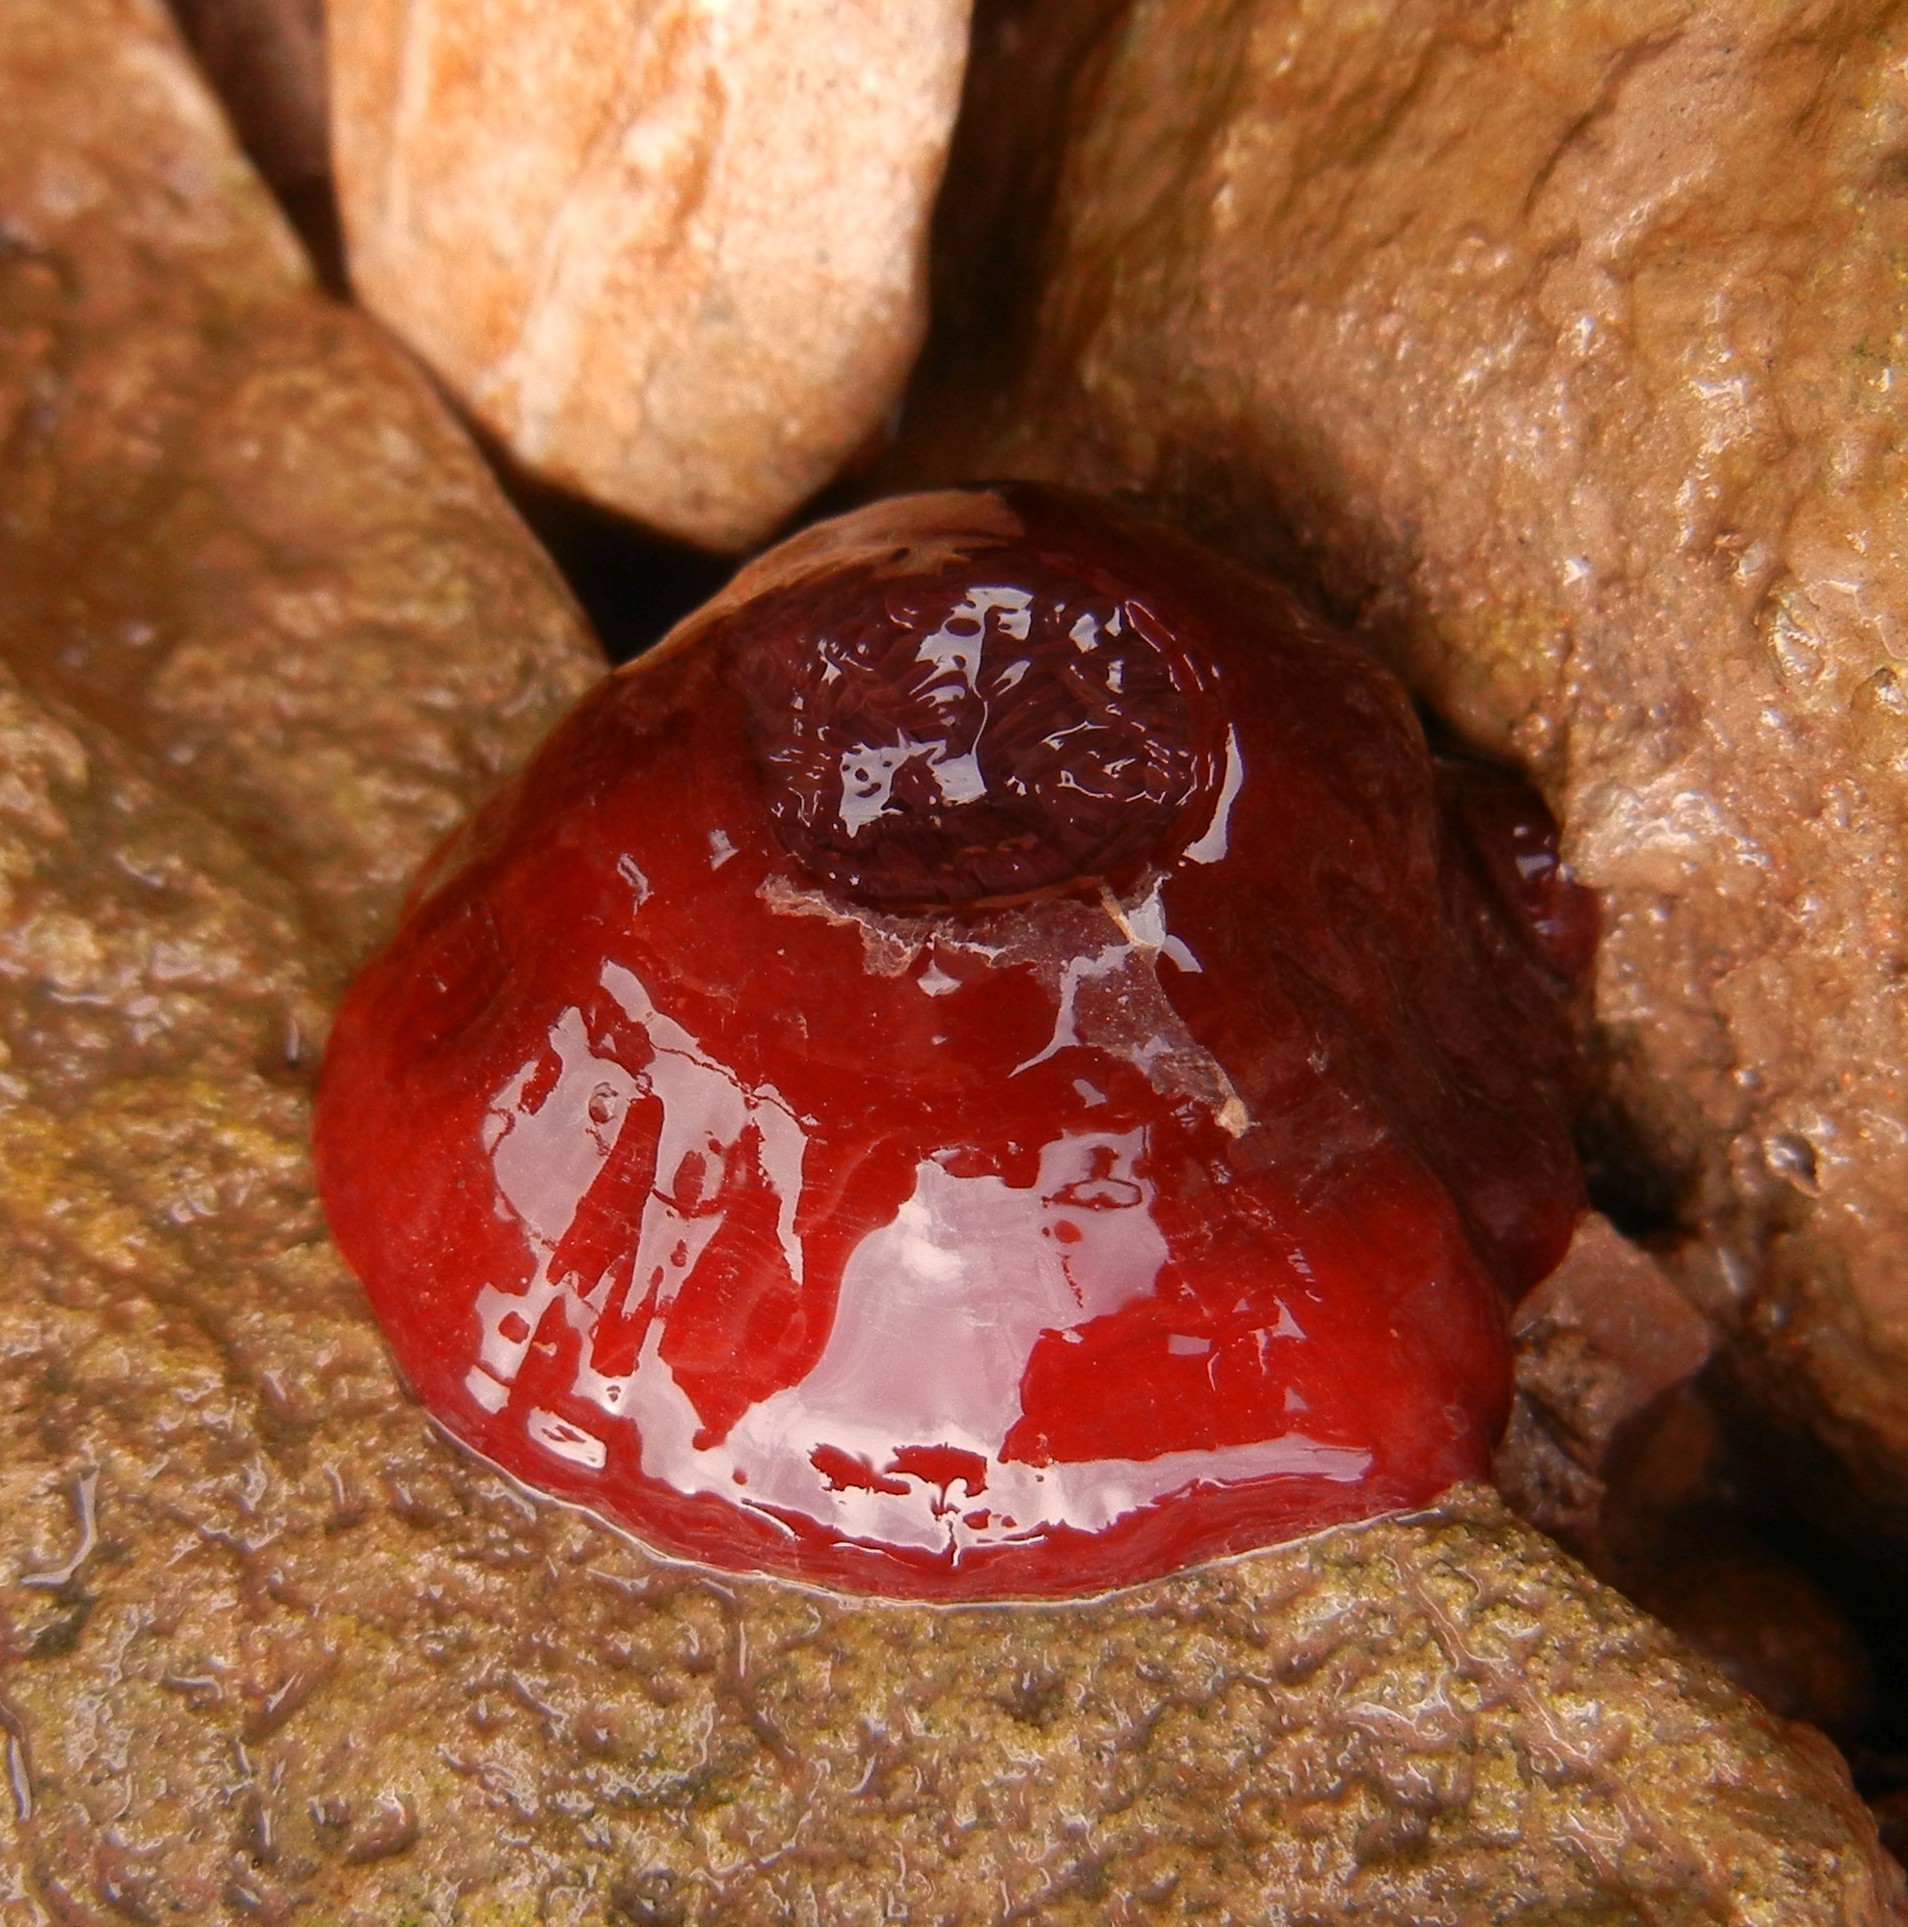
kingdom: Animalia
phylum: Cnidaria
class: Anthozoa
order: Actiniaria
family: Actiniidae
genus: Actinia
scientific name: Actinia equina
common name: Beadlet anemone
